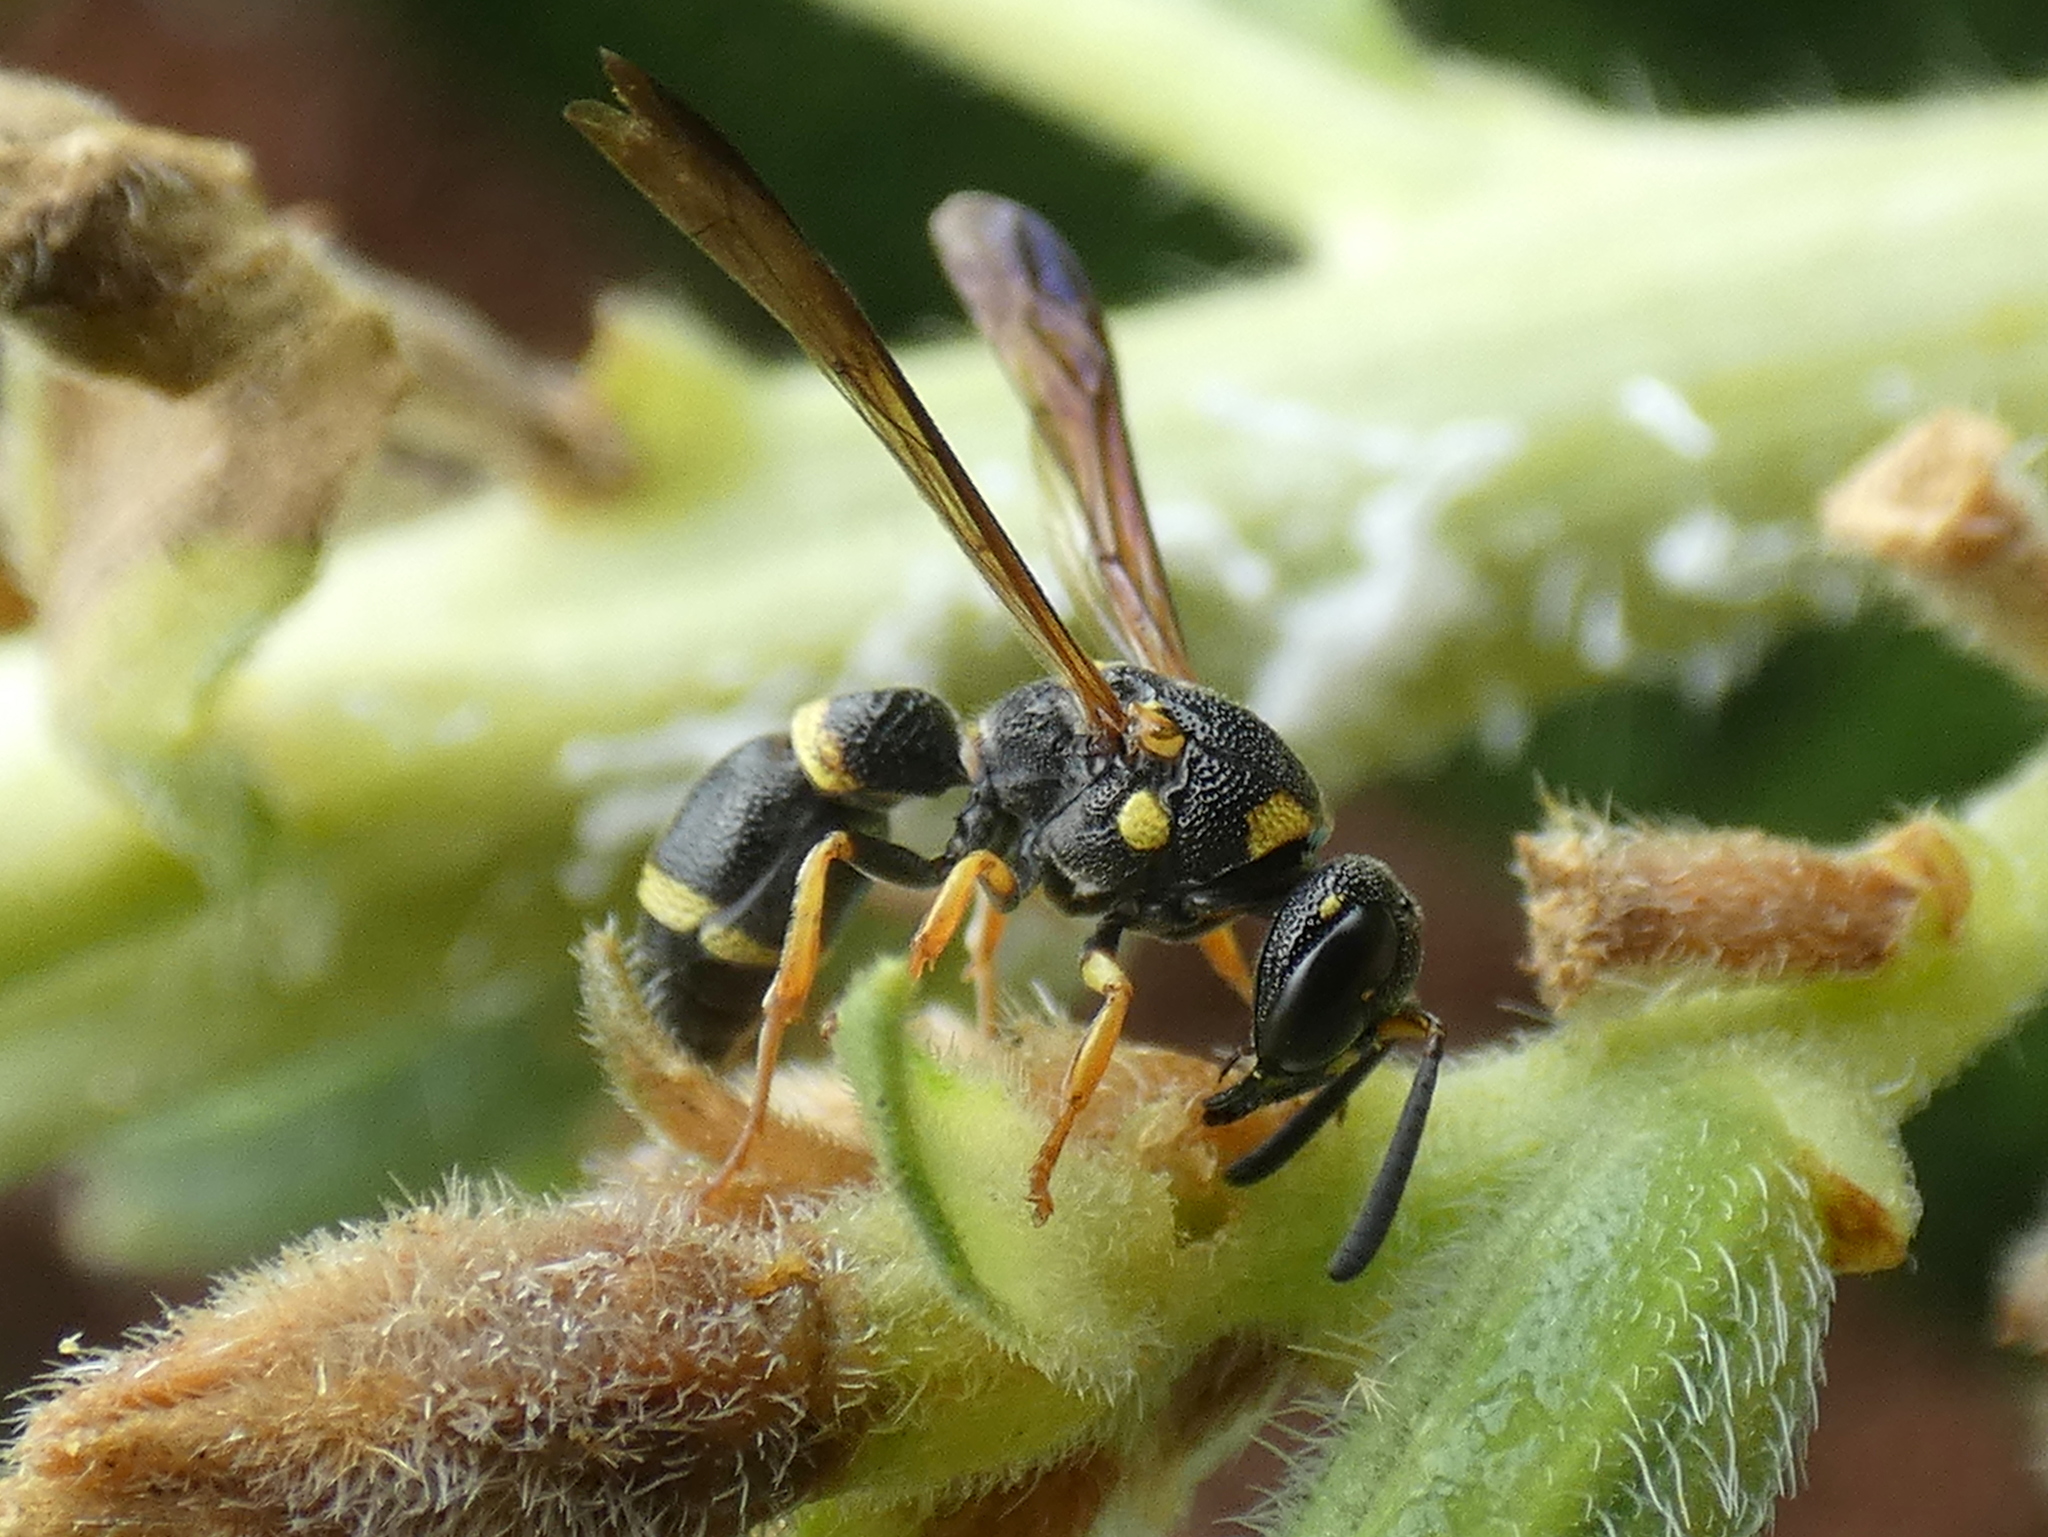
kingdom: Animalia
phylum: Arthropoda
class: Insecta
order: Hymenoptera
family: Eumenidae
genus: Parancistrocerus
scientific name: Parancistrocerus perennis
